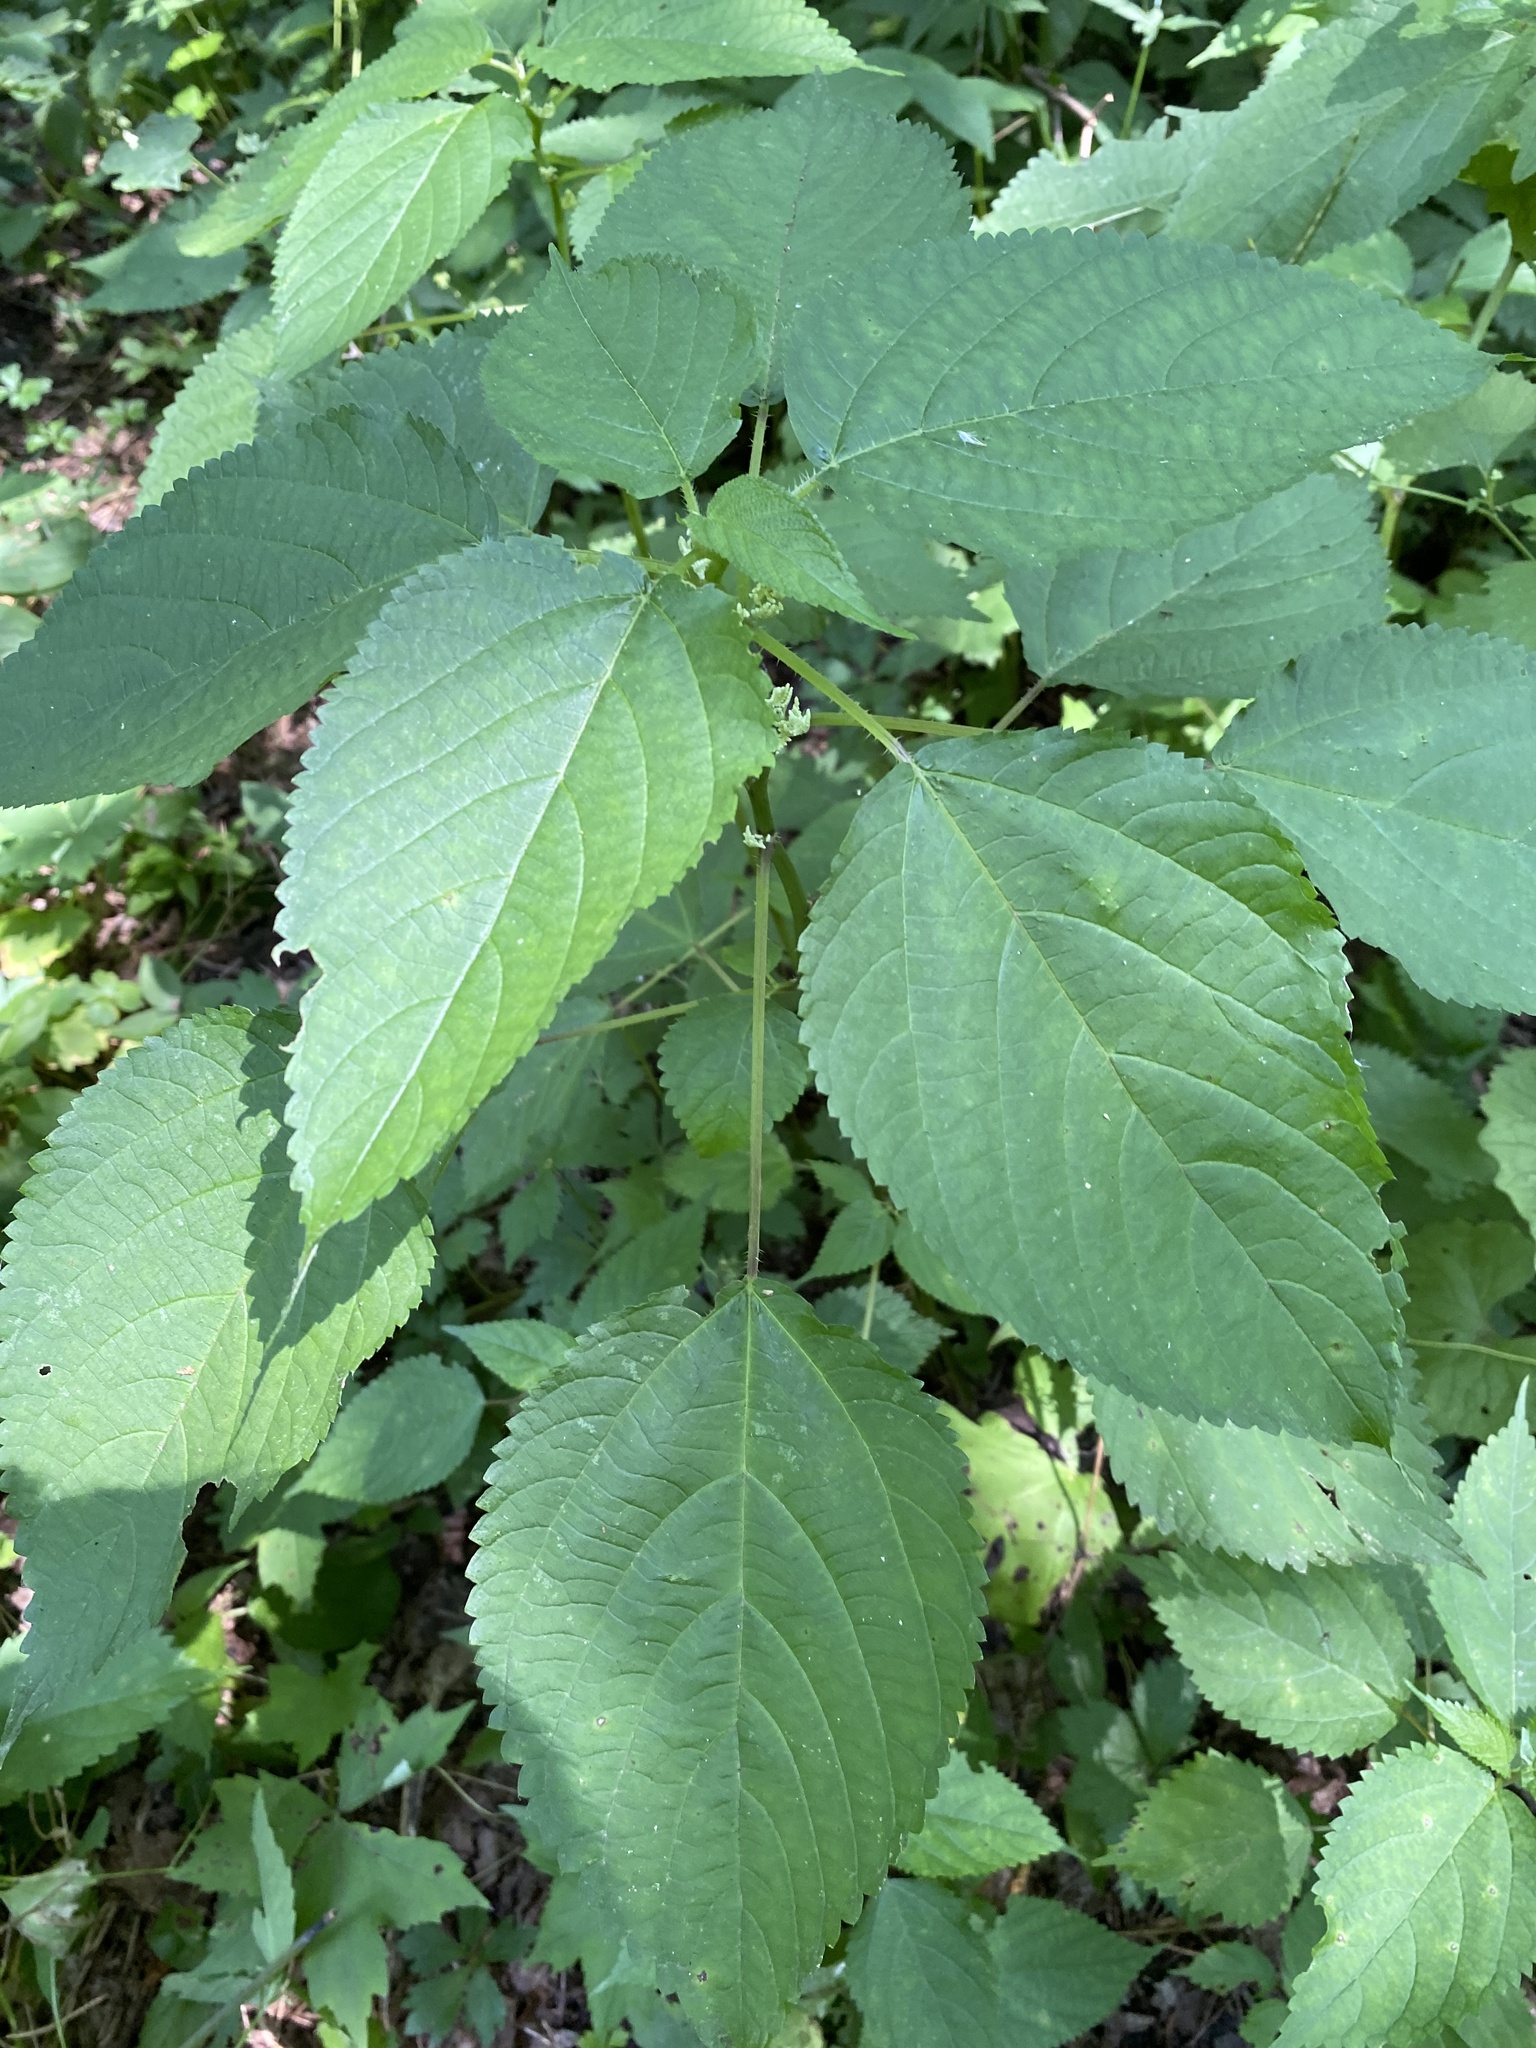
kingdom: Plantae
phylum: Tracheophyta
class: Magnoliopsida
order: Rosales
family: Urticaceae
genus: Laportea
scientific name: Laportea canadensis
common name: Canada nettle
